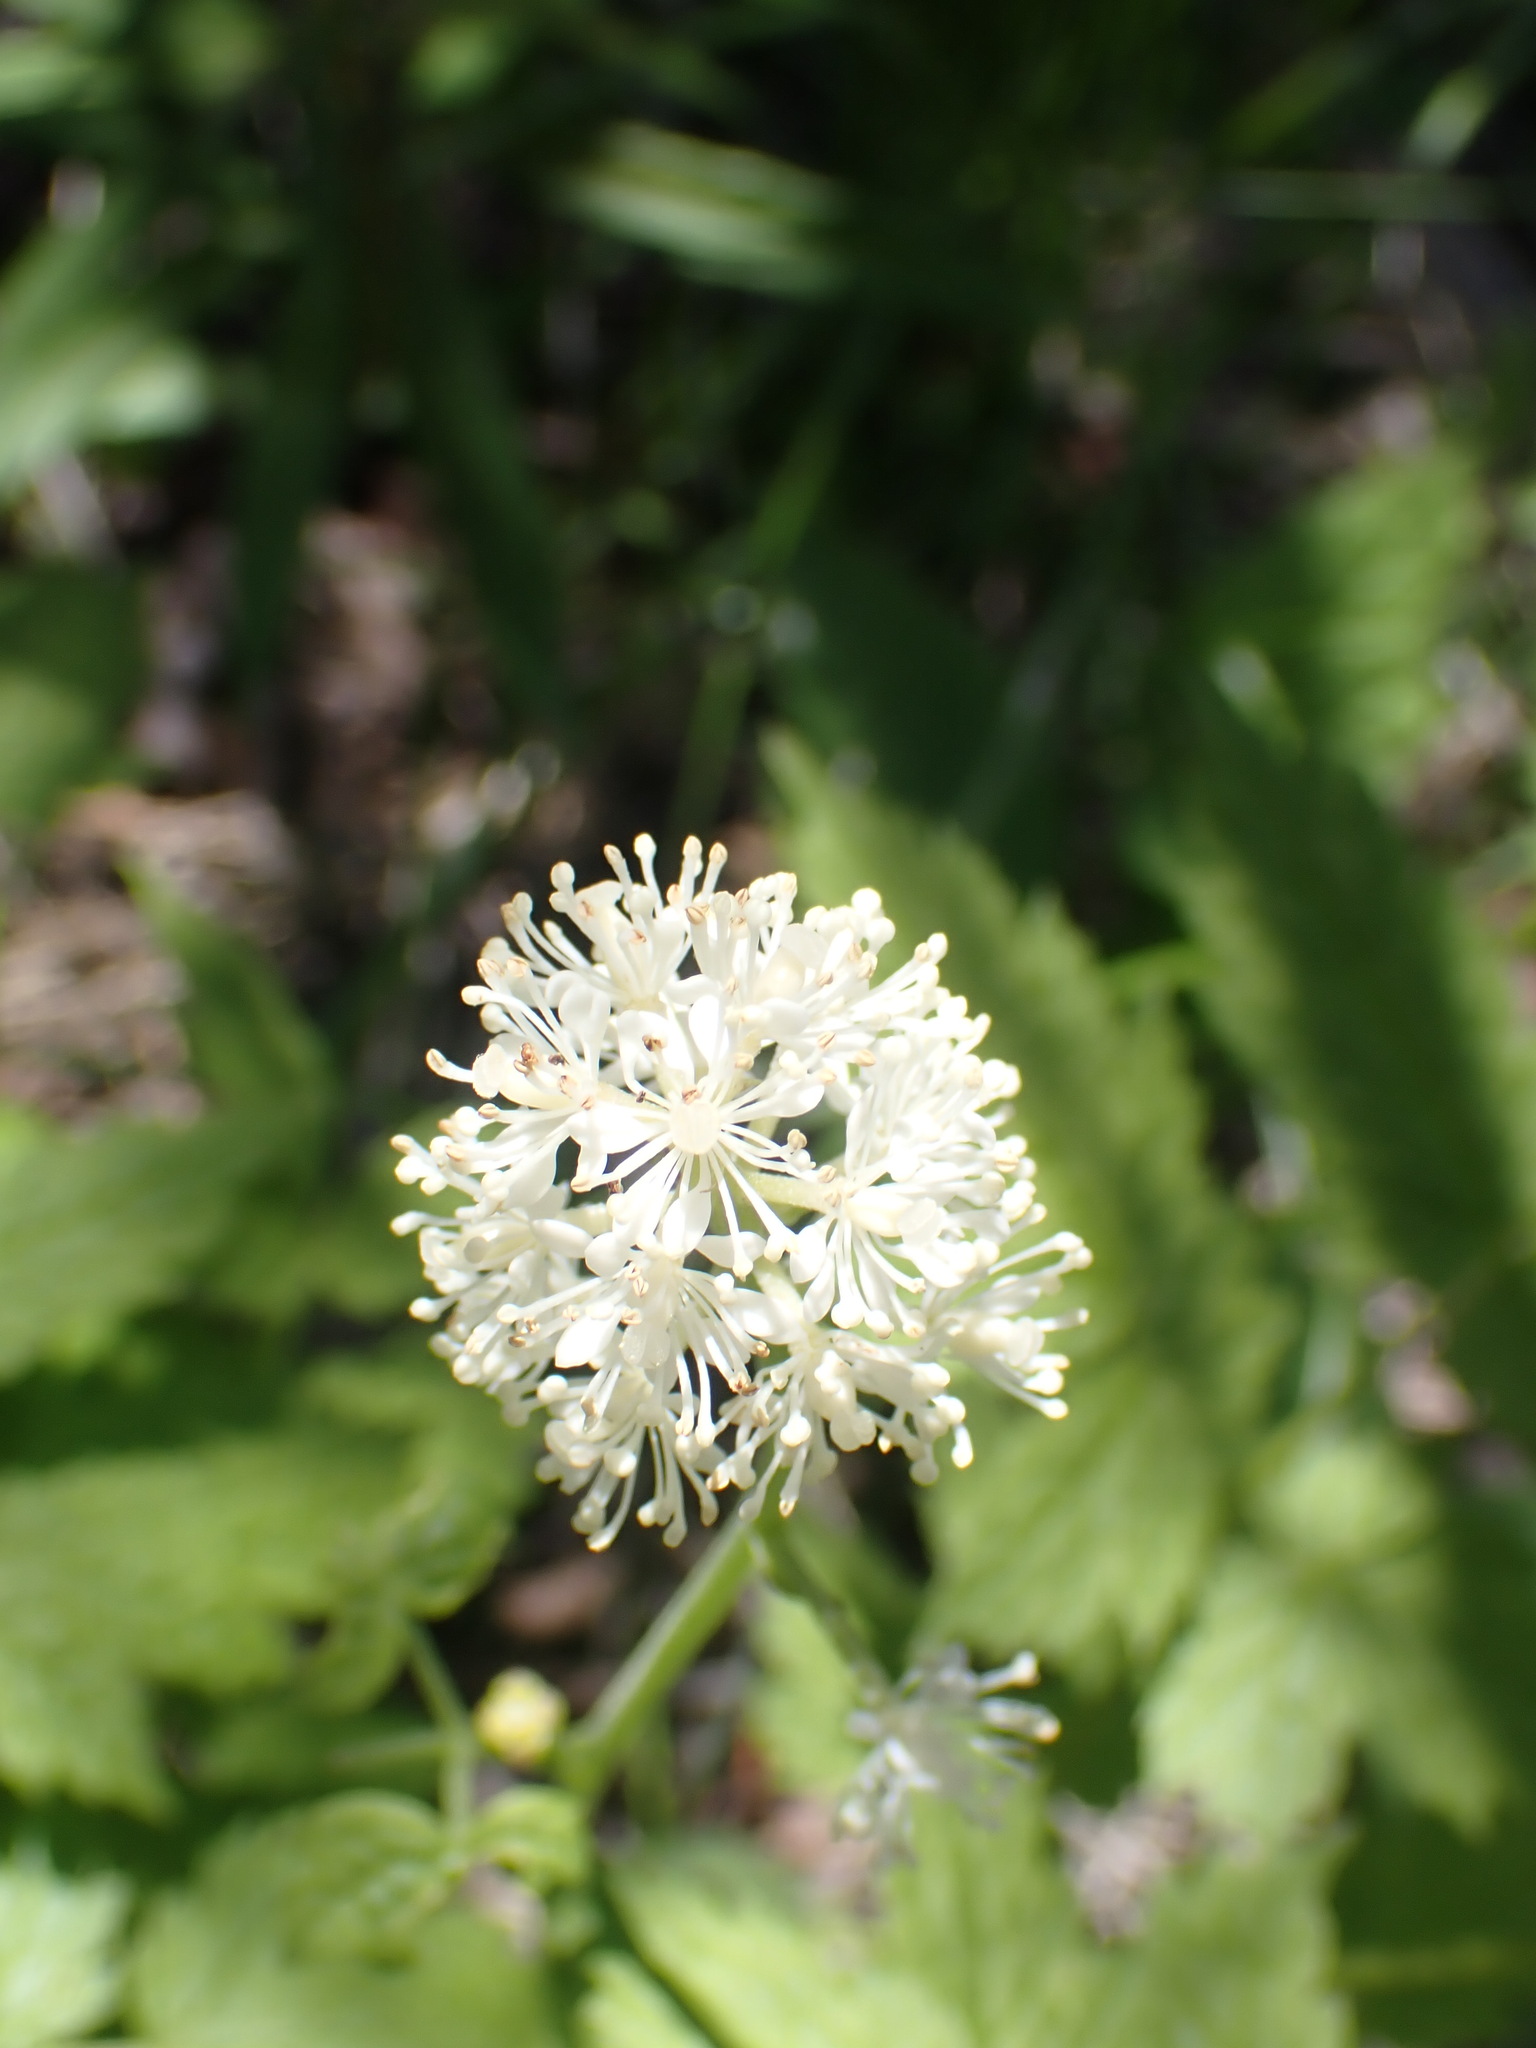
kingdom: Plantae
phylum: Tracheophyta
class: Magnoliopsida
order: Ranunculales
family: Ranunculaceae
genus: Actaea
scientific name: Actaea rubra
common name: Red baneberry
